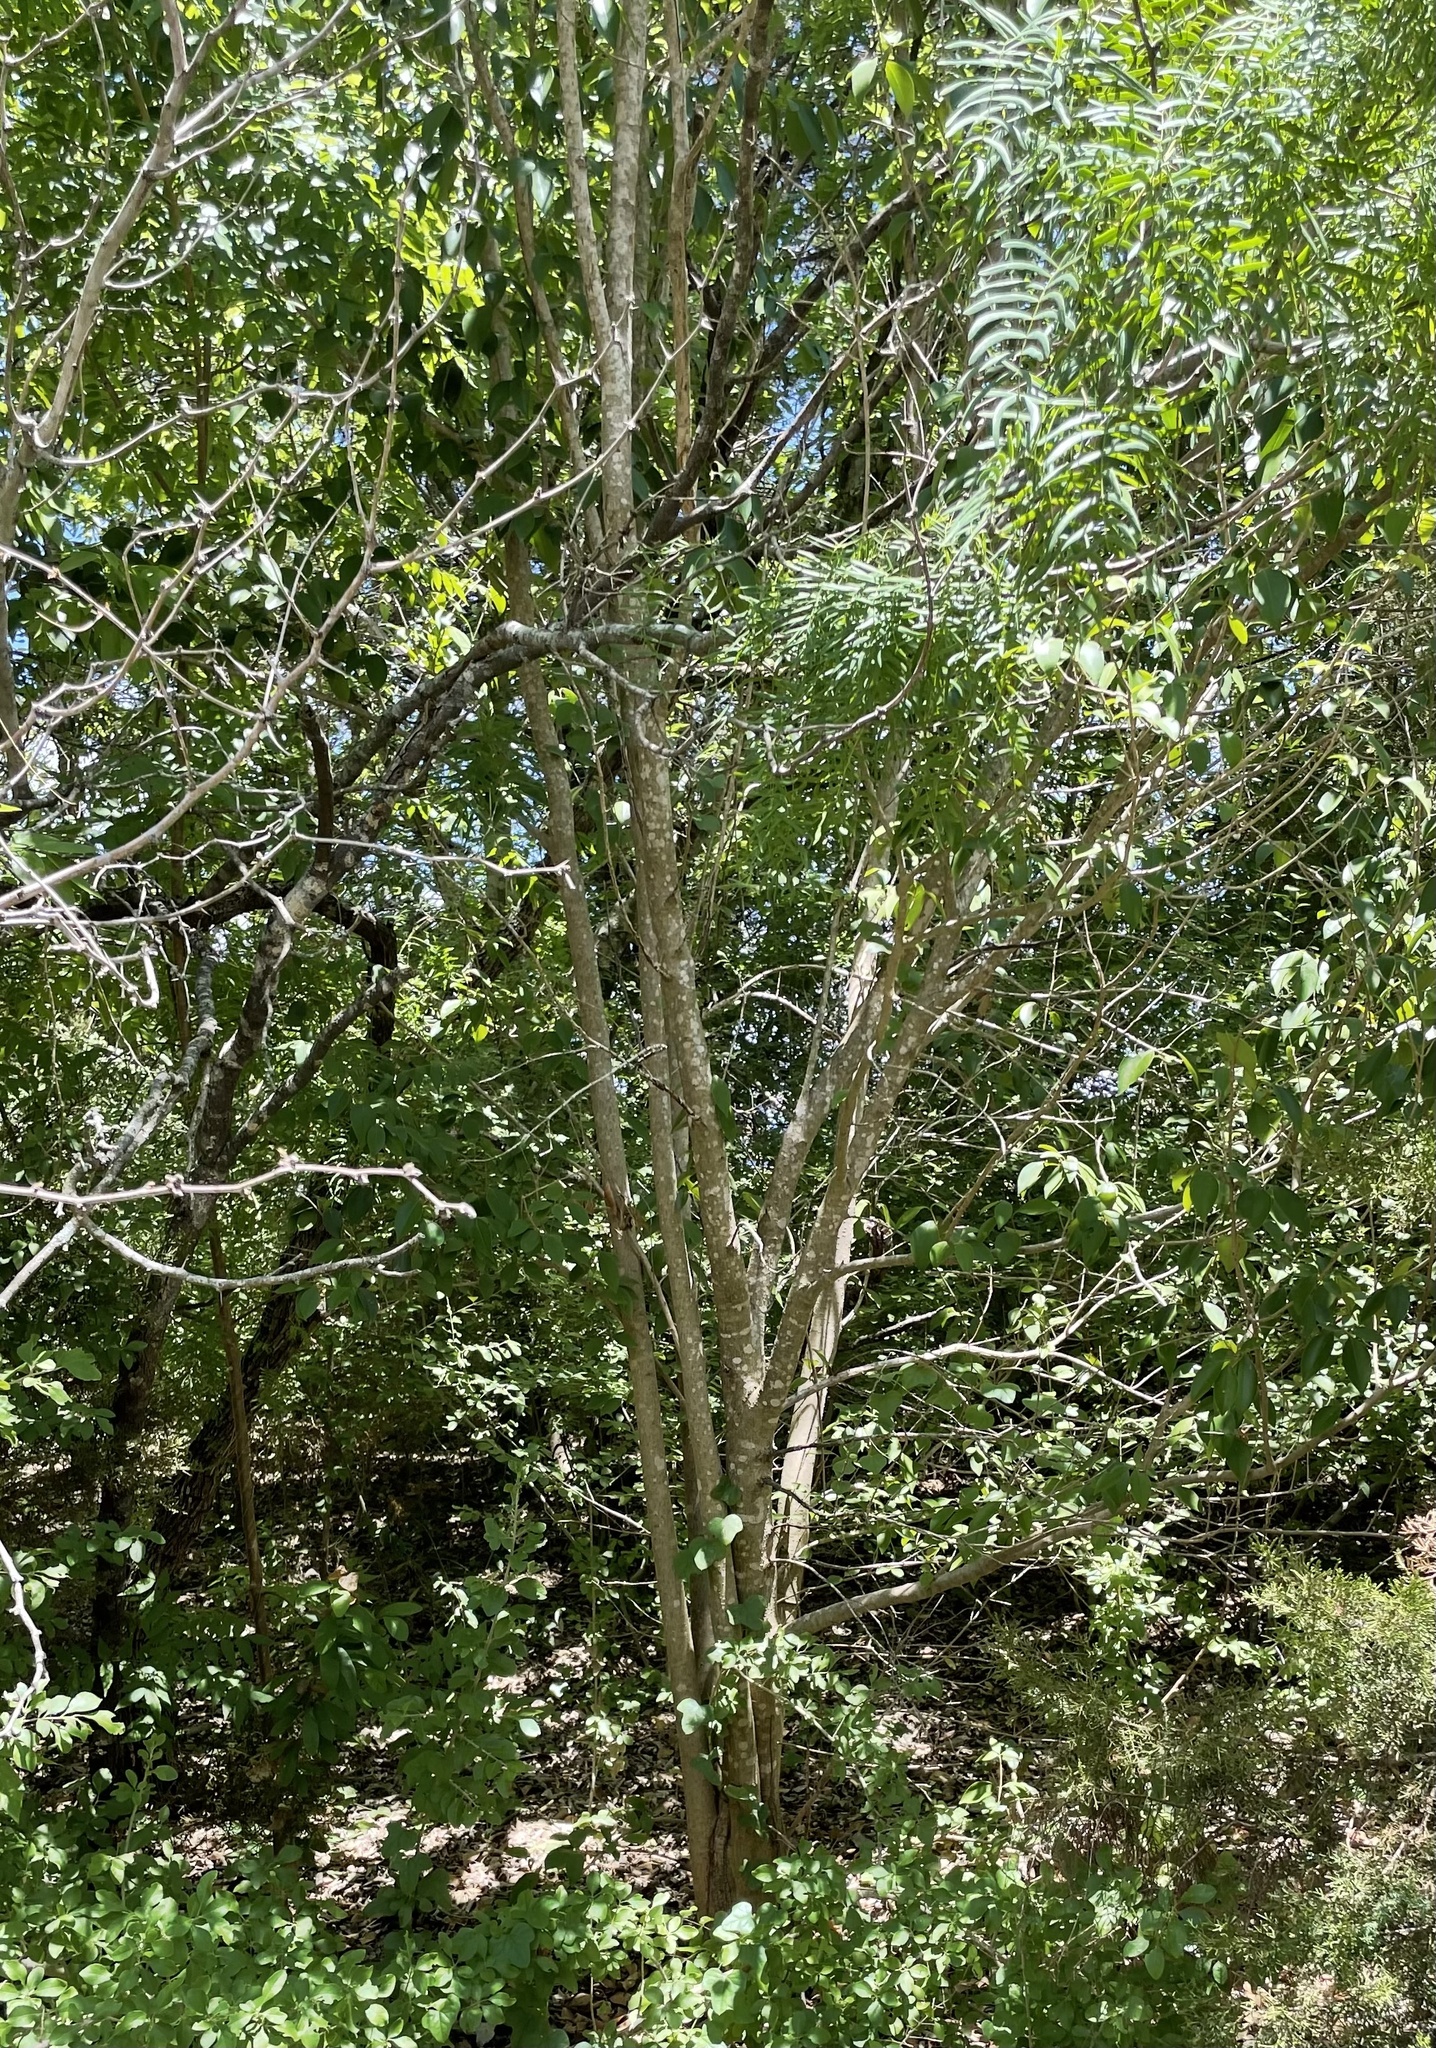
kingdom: Plantae
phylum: Tracheophyta
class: Magnoliopsida
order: Lamiales
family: Oleaceae
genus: Ligustrum
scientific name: Ligustrum lucidum
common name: Glossy privet
